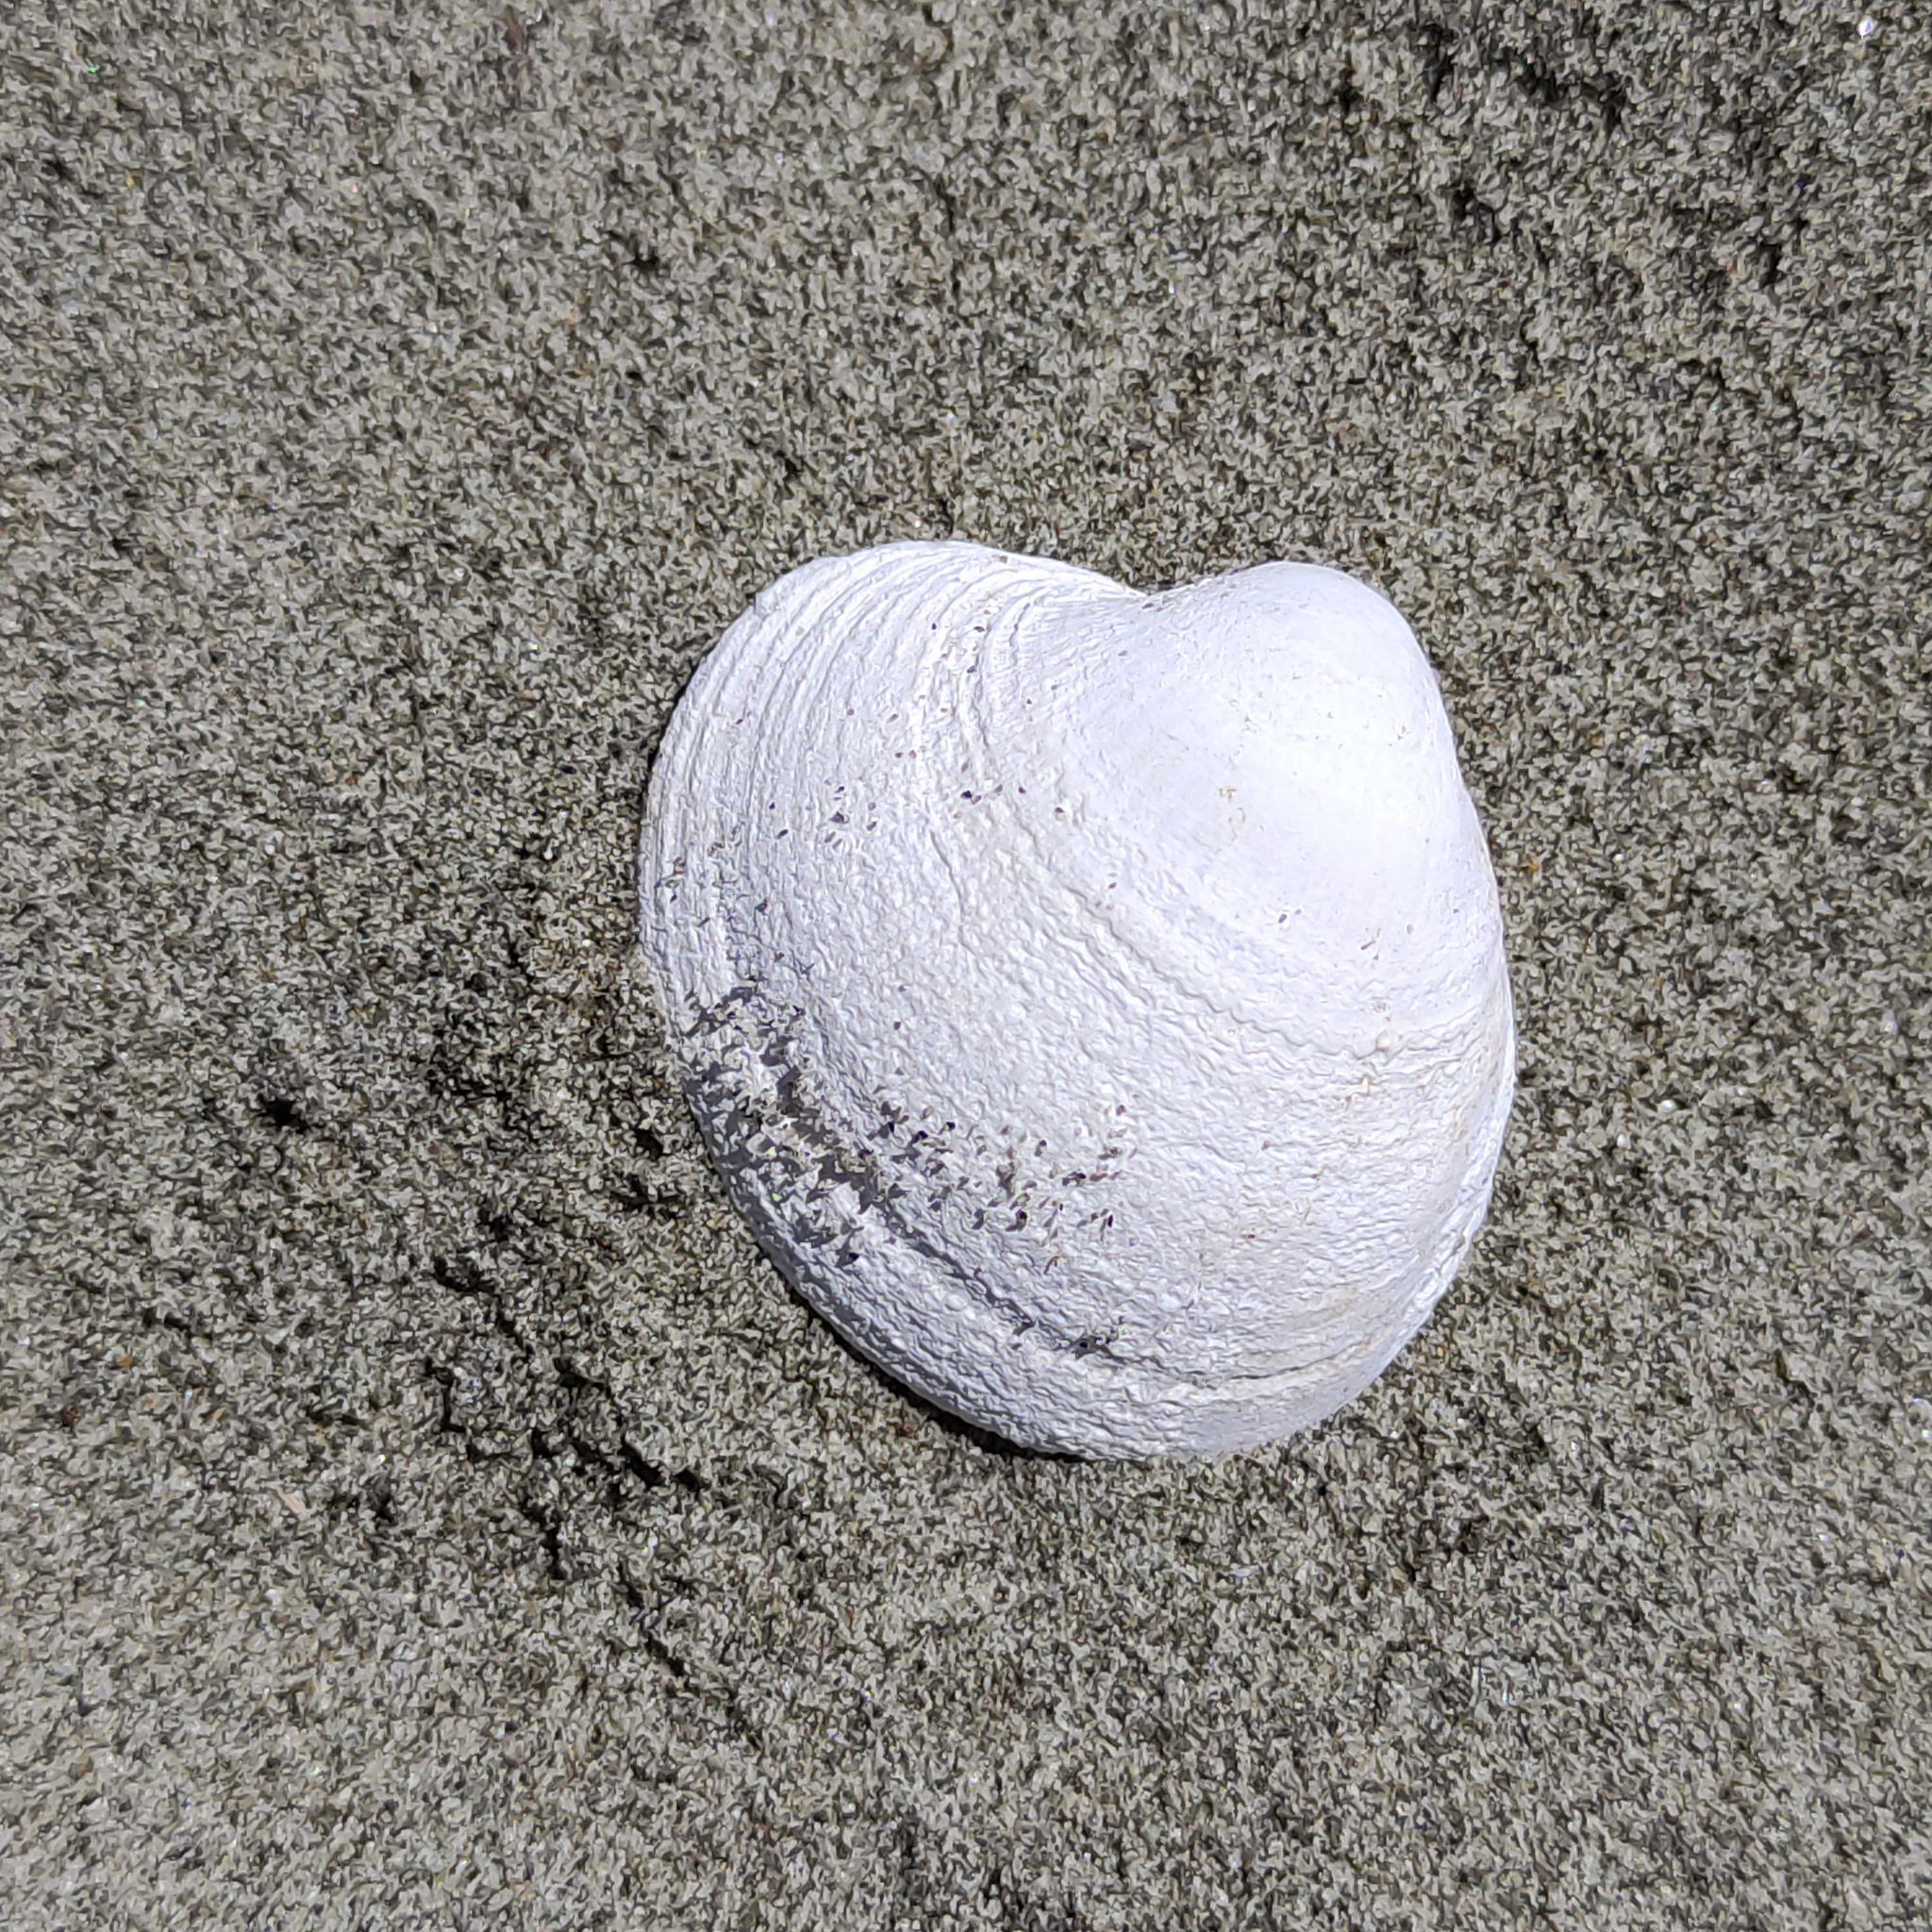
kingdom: Animalia
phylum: Mollusca
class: Bivalvia
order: Venerida
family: Veneridae
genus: Austrovenus
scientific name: Austrovenus stutchburyi
